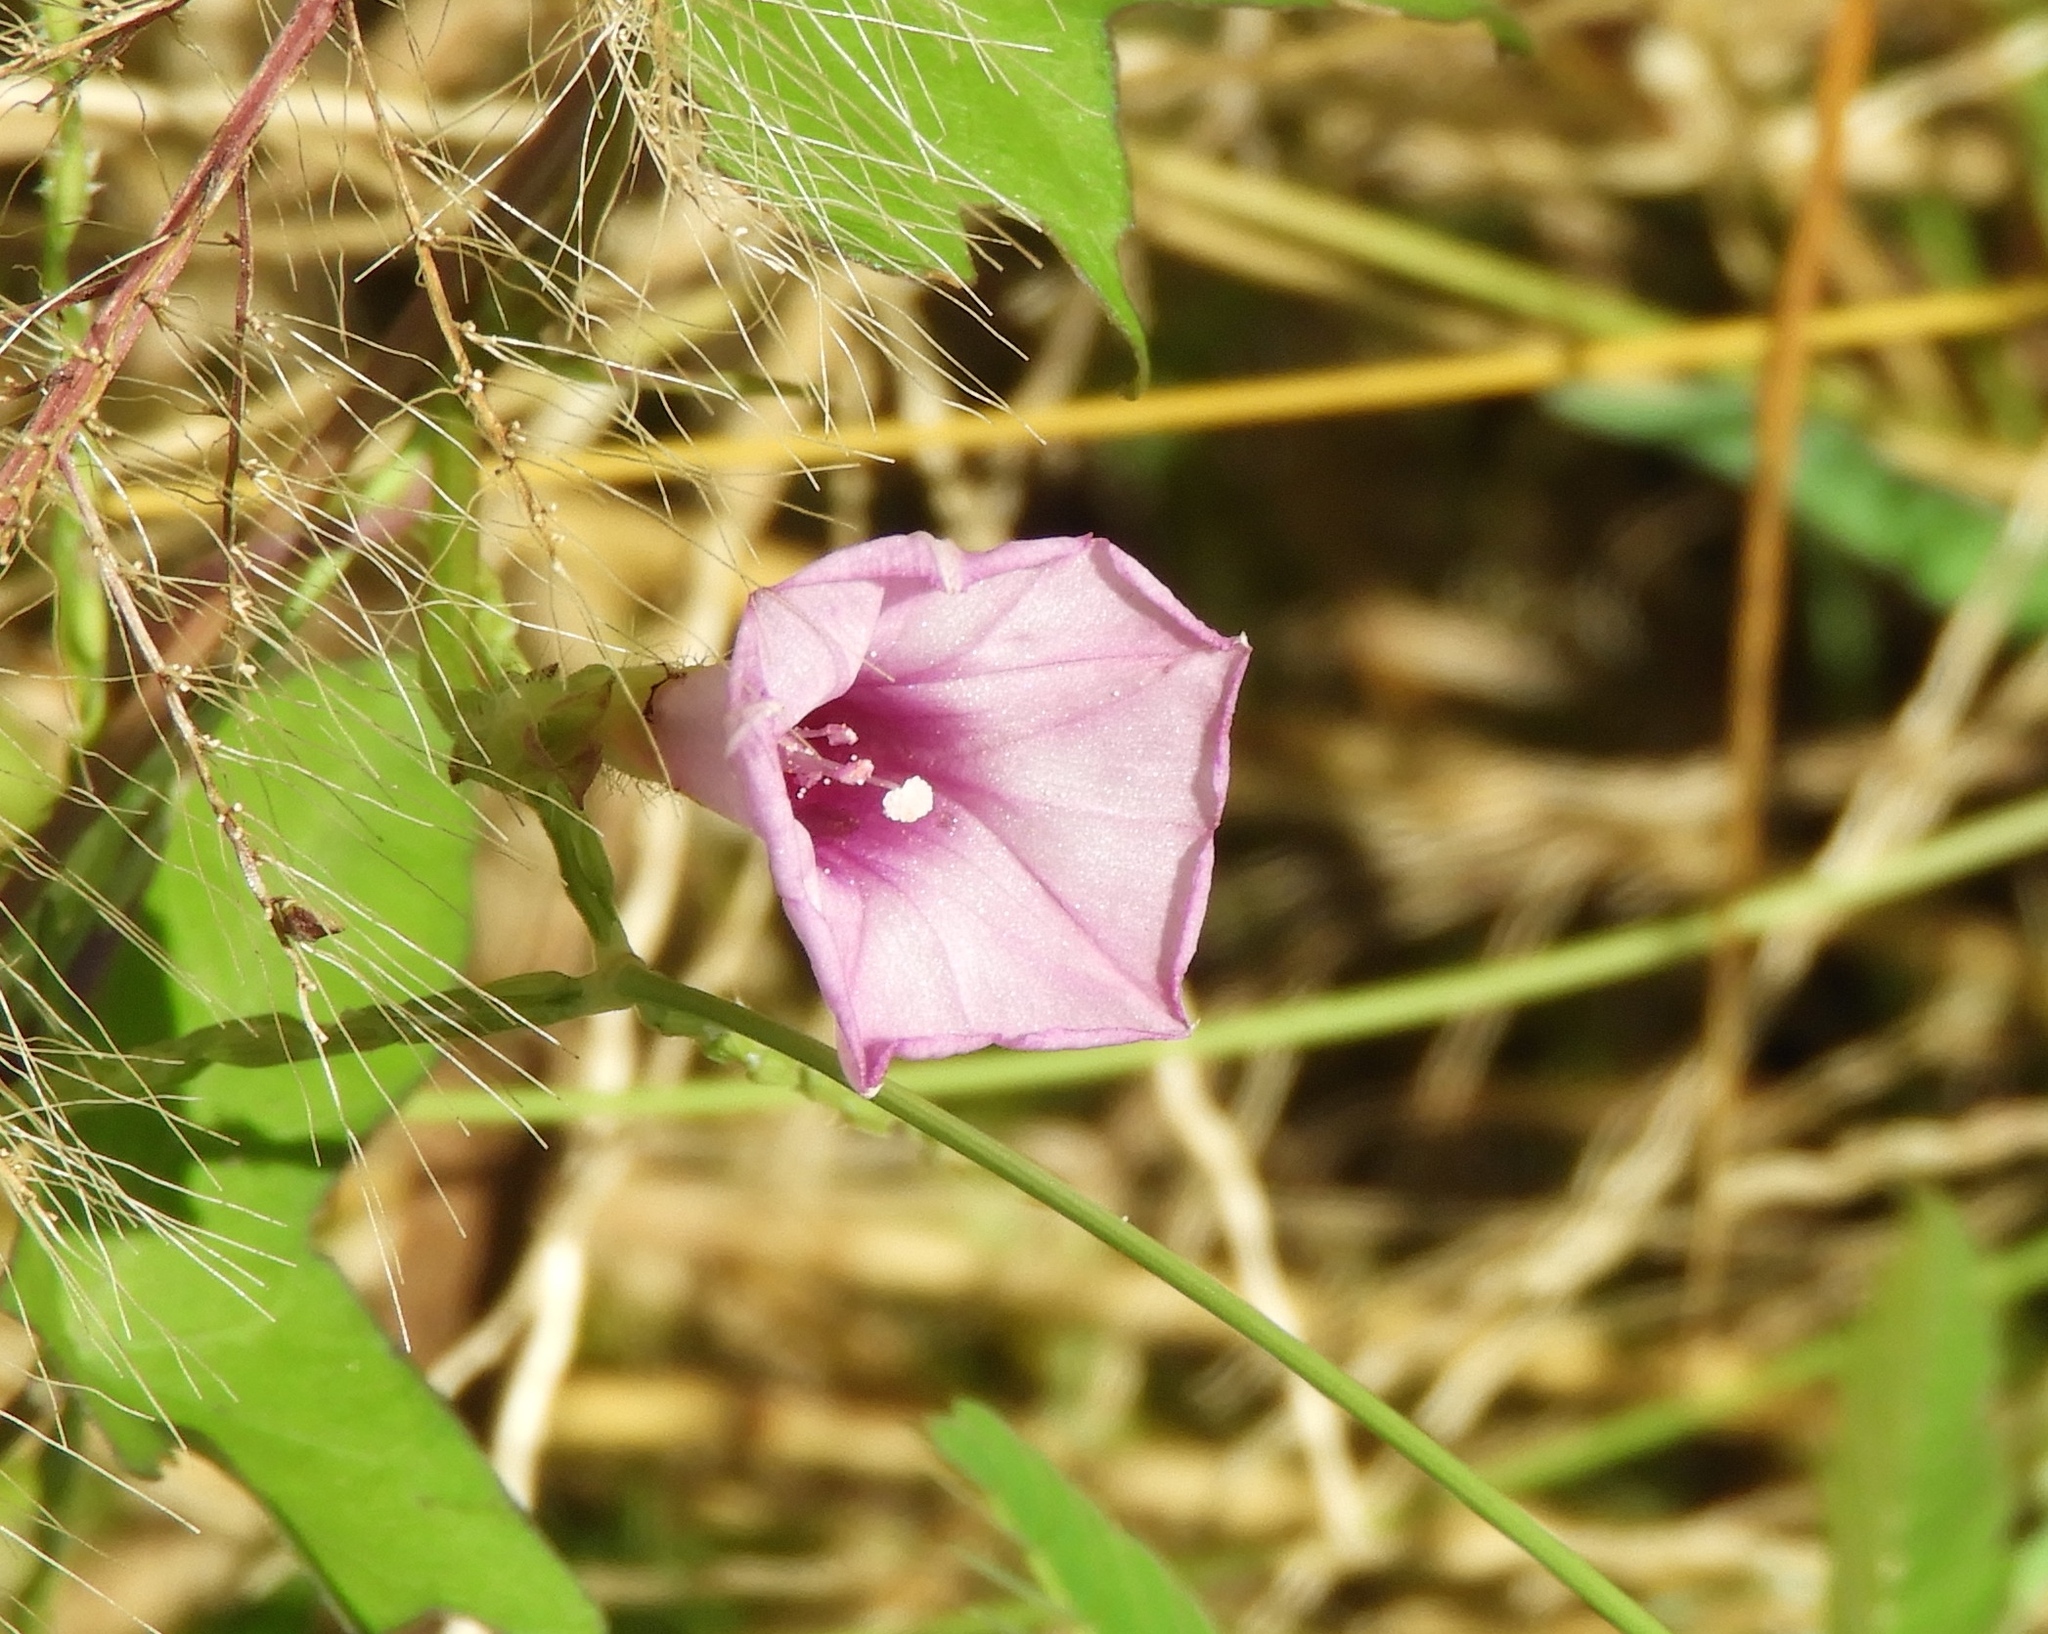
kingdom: Plantae
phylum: Tracheophyta
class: Magnoliopsida
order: Solanales
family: Convolvulaceae
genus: Ipomoea
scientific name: Ipomoea triloba
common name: Little-bell
